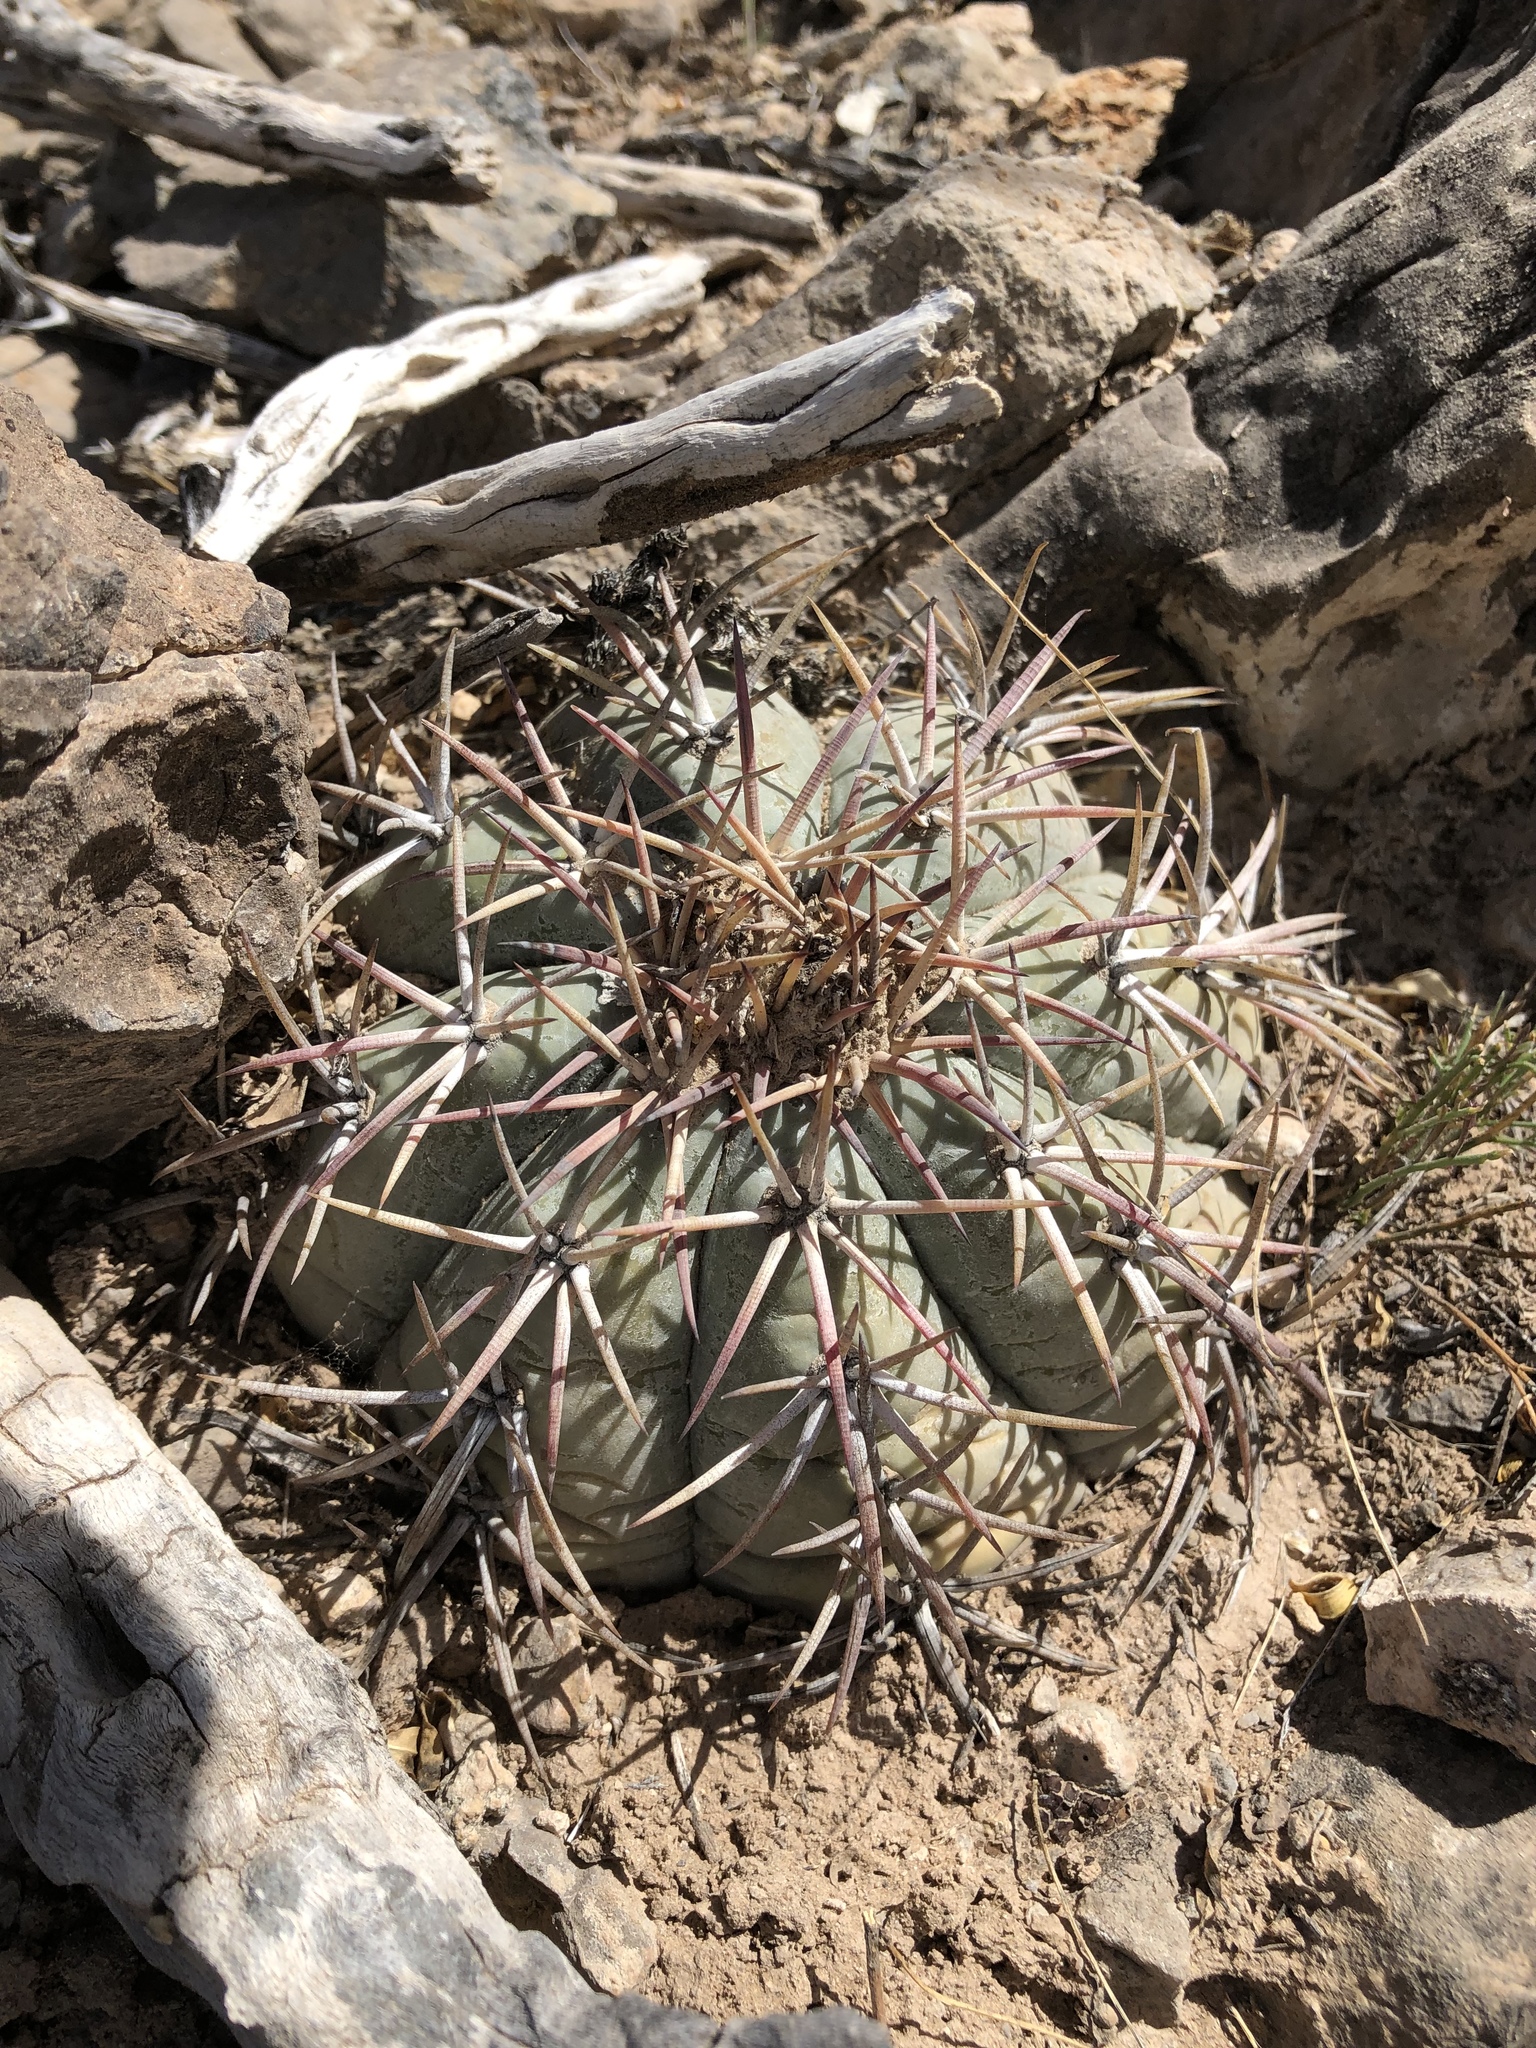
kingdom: Plantae
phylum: Tracheophyta
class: Magnoliopsida
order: Caryophyllales
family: Cactaceae
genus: Echinocactus
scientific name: Echinocactus horizonthalonius
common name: Devilshead
